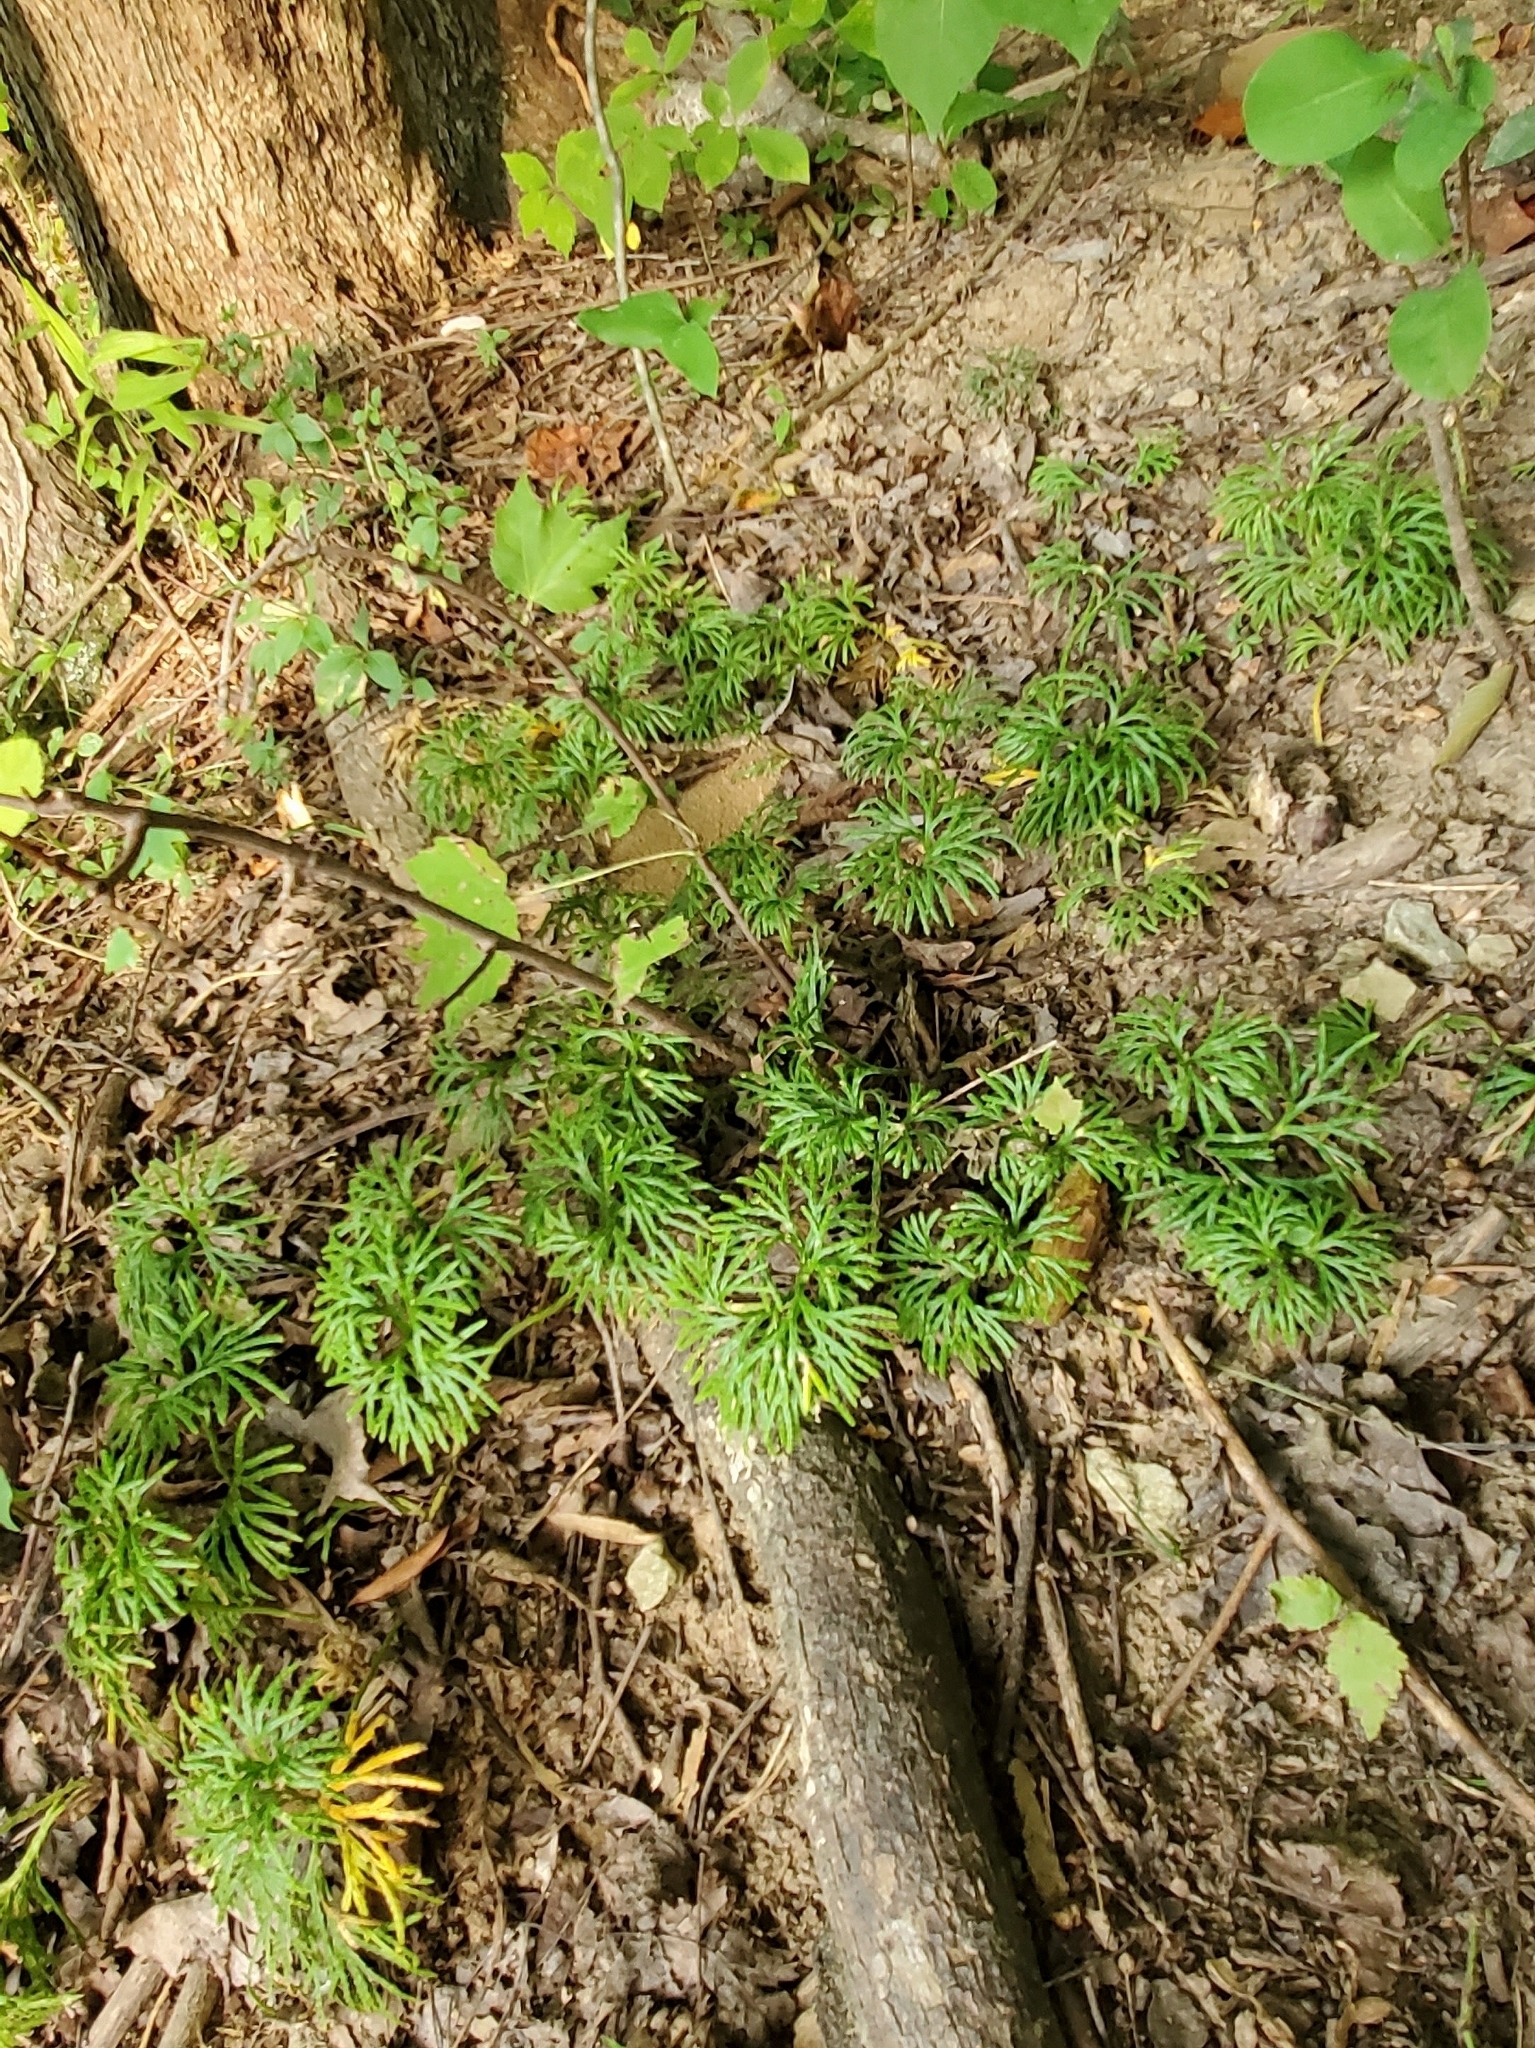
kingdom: Plantae
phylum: Tracheophyta
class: Lycopodiopsida
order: Lycopodiales
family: Lycopodiaceae
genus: Diphasiastrum
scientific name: Diphasiastrum digitatum
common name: Southern running-pine
